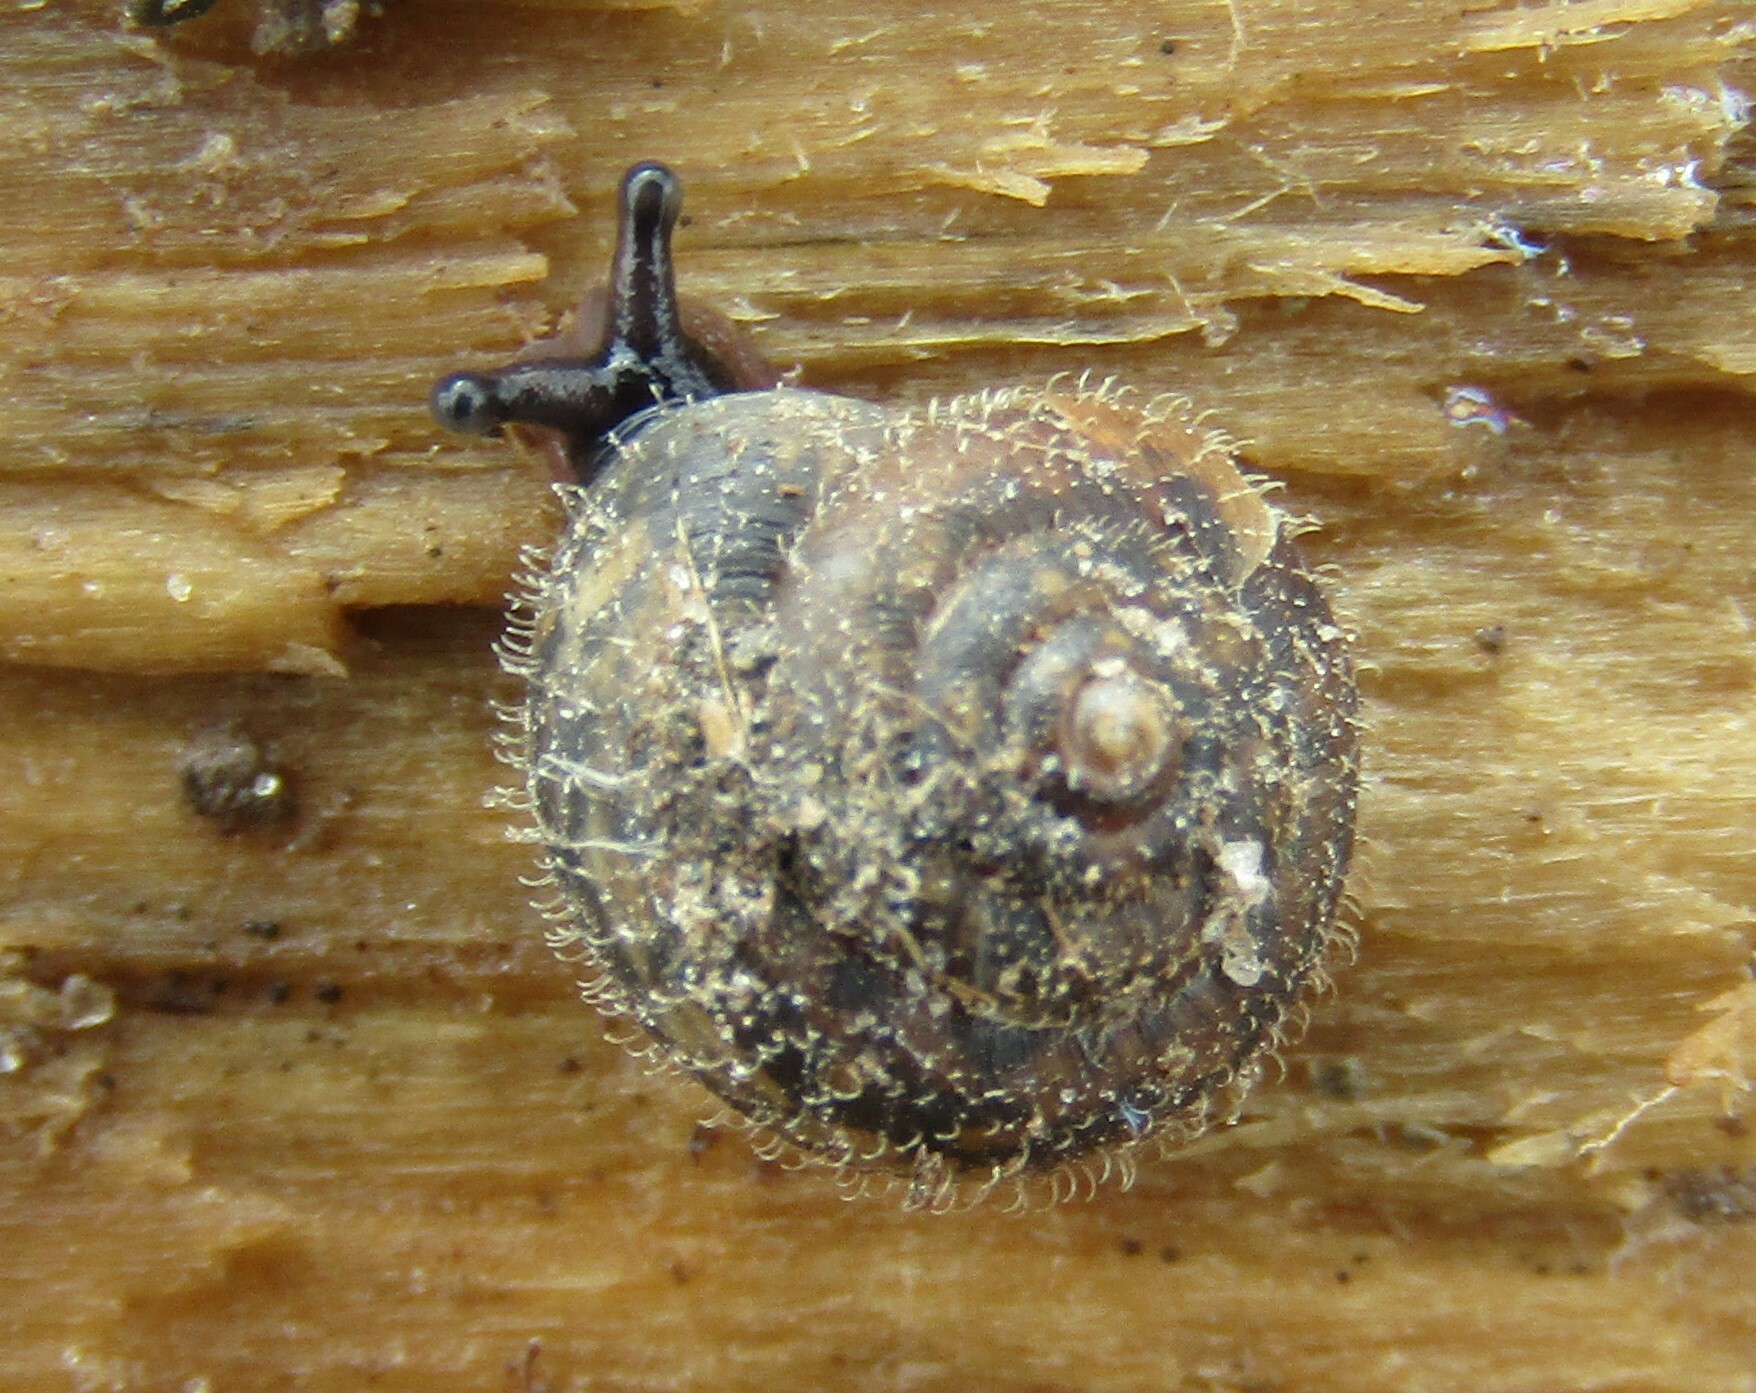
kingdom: Animalia
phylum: Mollusca
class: Gastropoda
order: Stylommatophora
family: Hygromiidae
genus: Trochulus
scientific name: Trochulus hispidus
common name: Hairy snail
